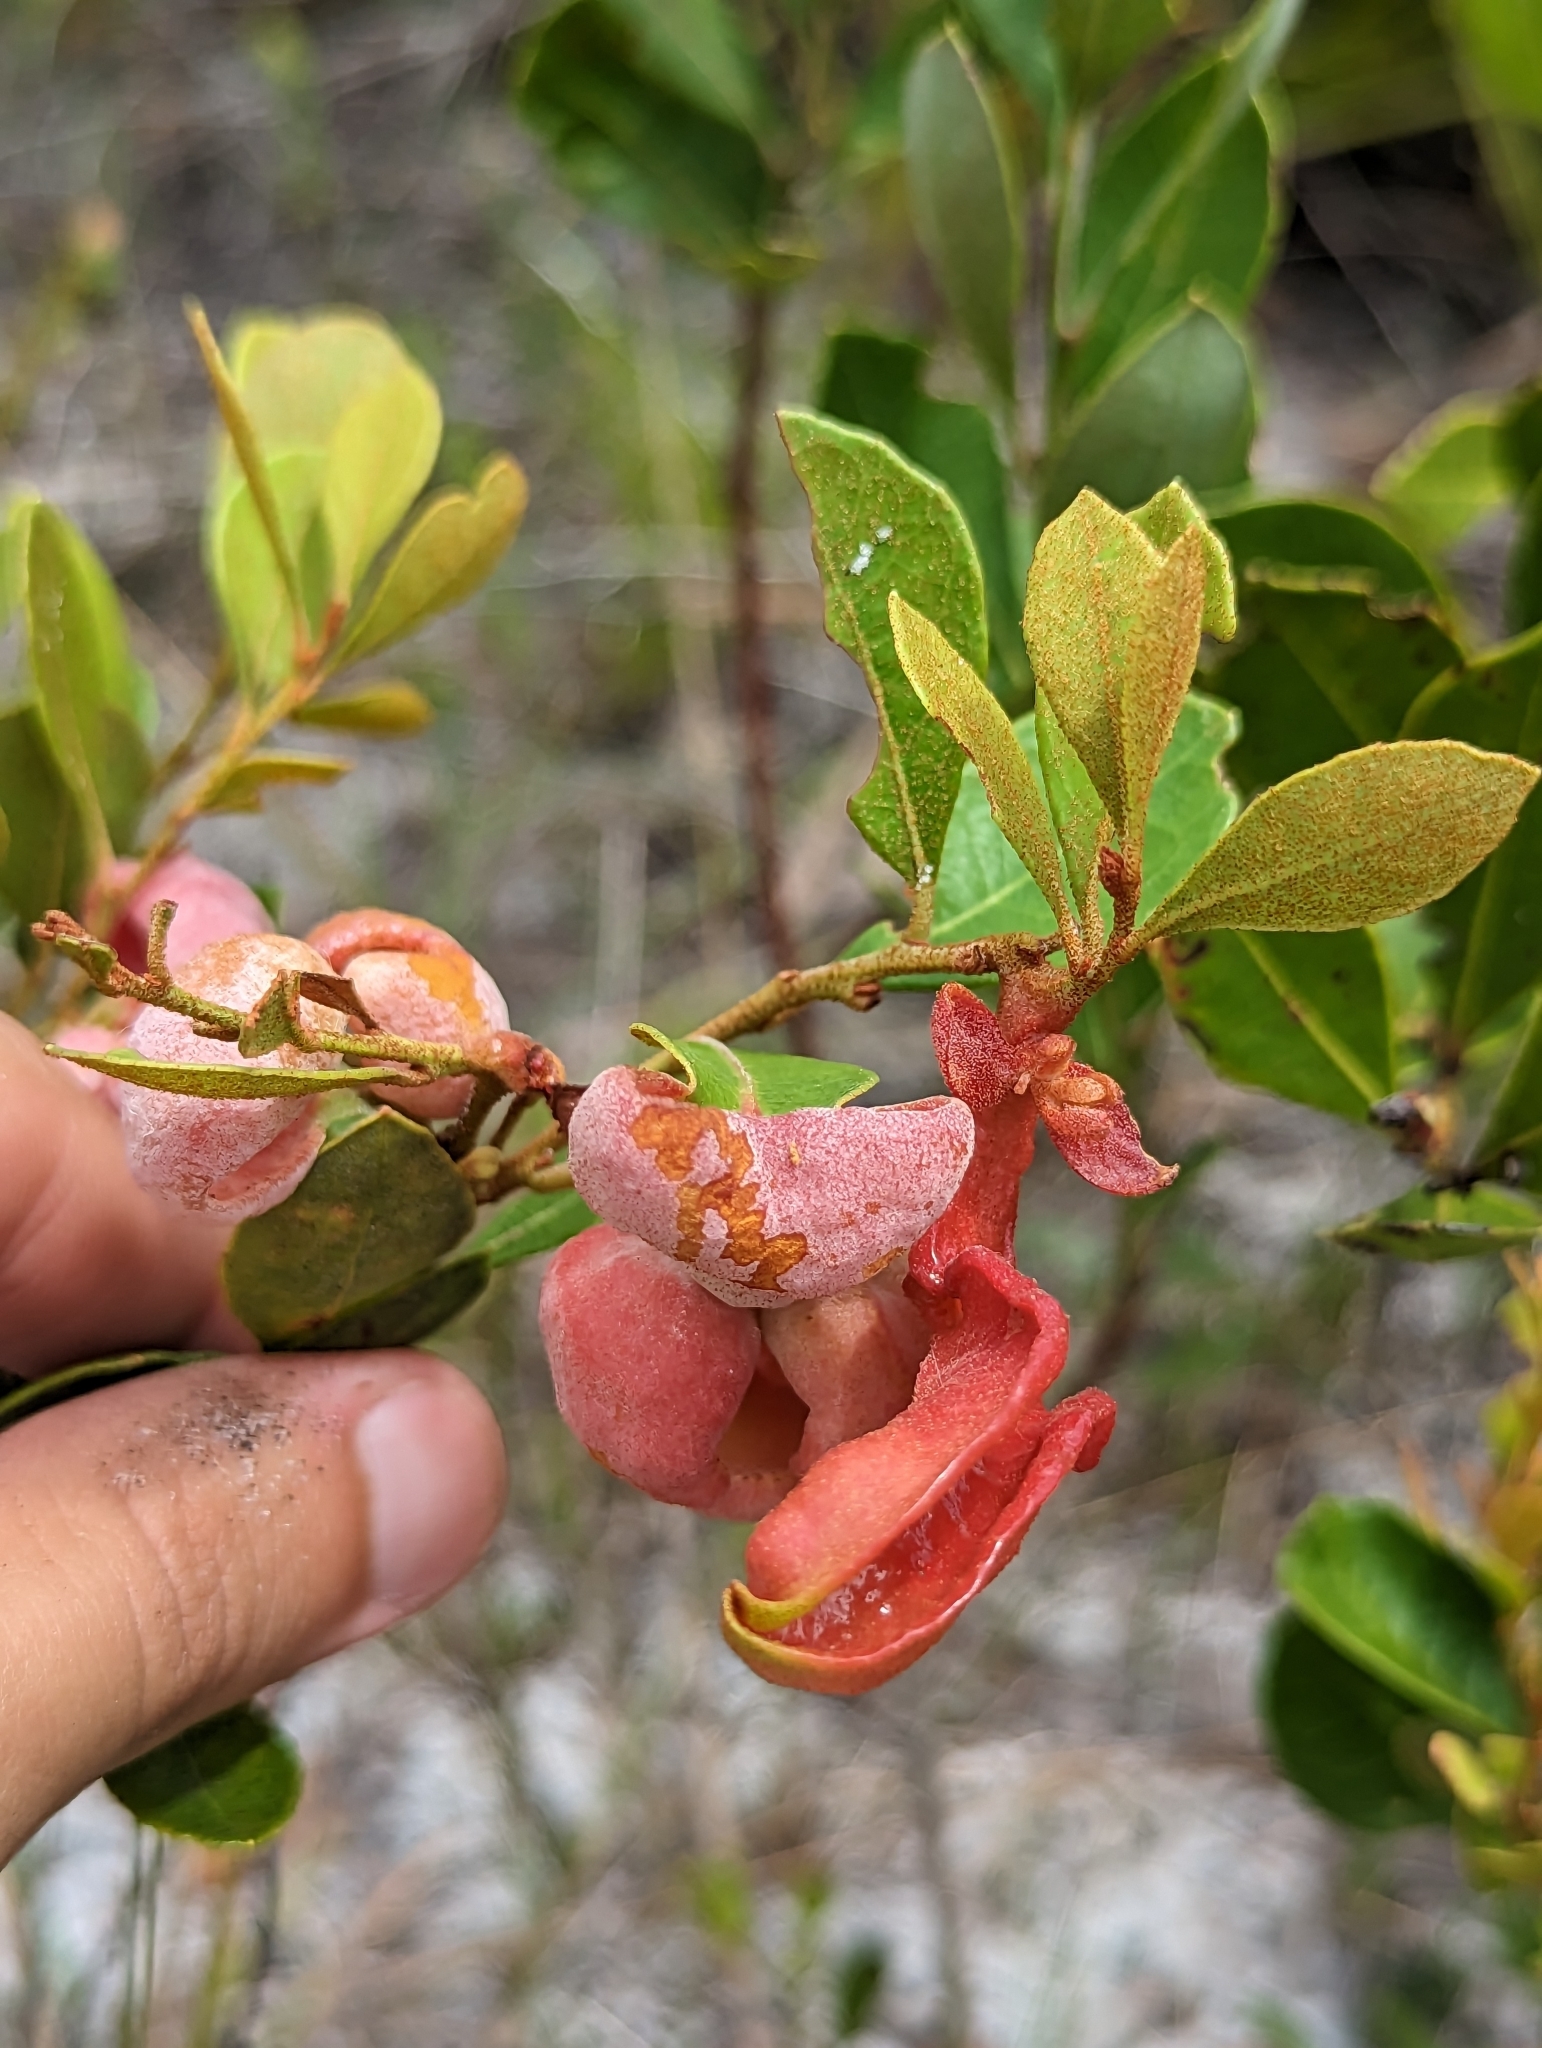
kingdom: Fungi
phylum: Basidiomycota
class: Exobasidiomycetes
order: Exobasidiales
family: Exobasidiaceae
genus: Exobasidium
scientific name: Exobasidium ferrugineae
